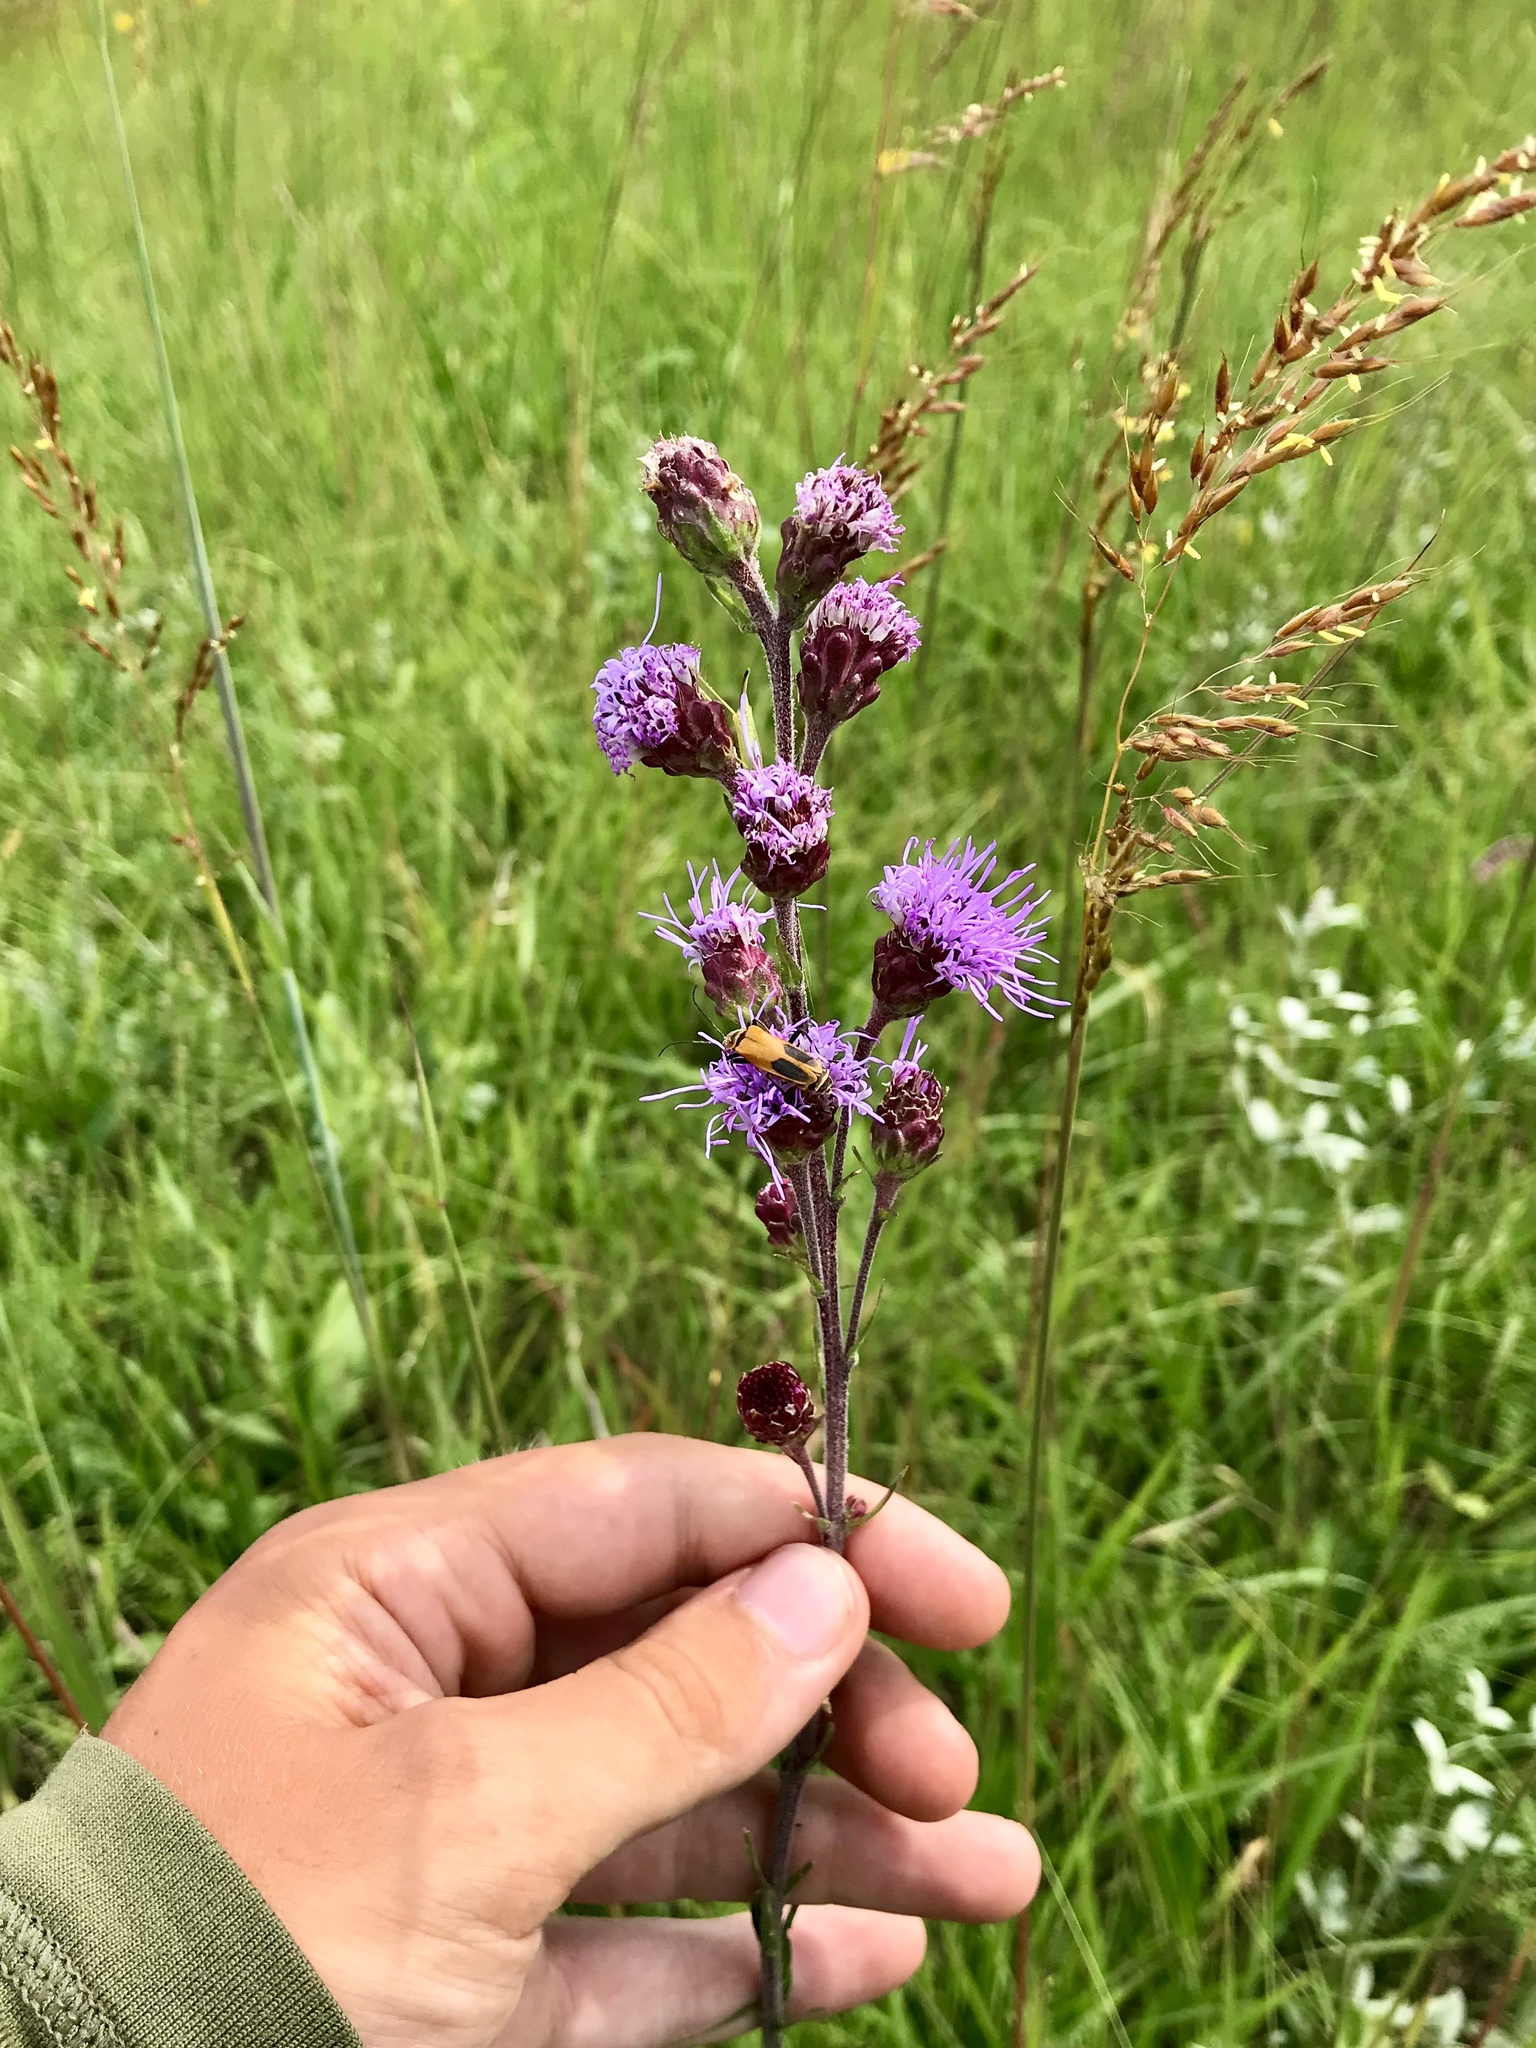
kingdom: Plantae
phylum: Tracheophyta
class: Magnoliopsida
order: Asterales
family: Asteraceae
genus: Liatris
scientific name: Liatris ligulistylis
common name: Northern plains gayfeather
